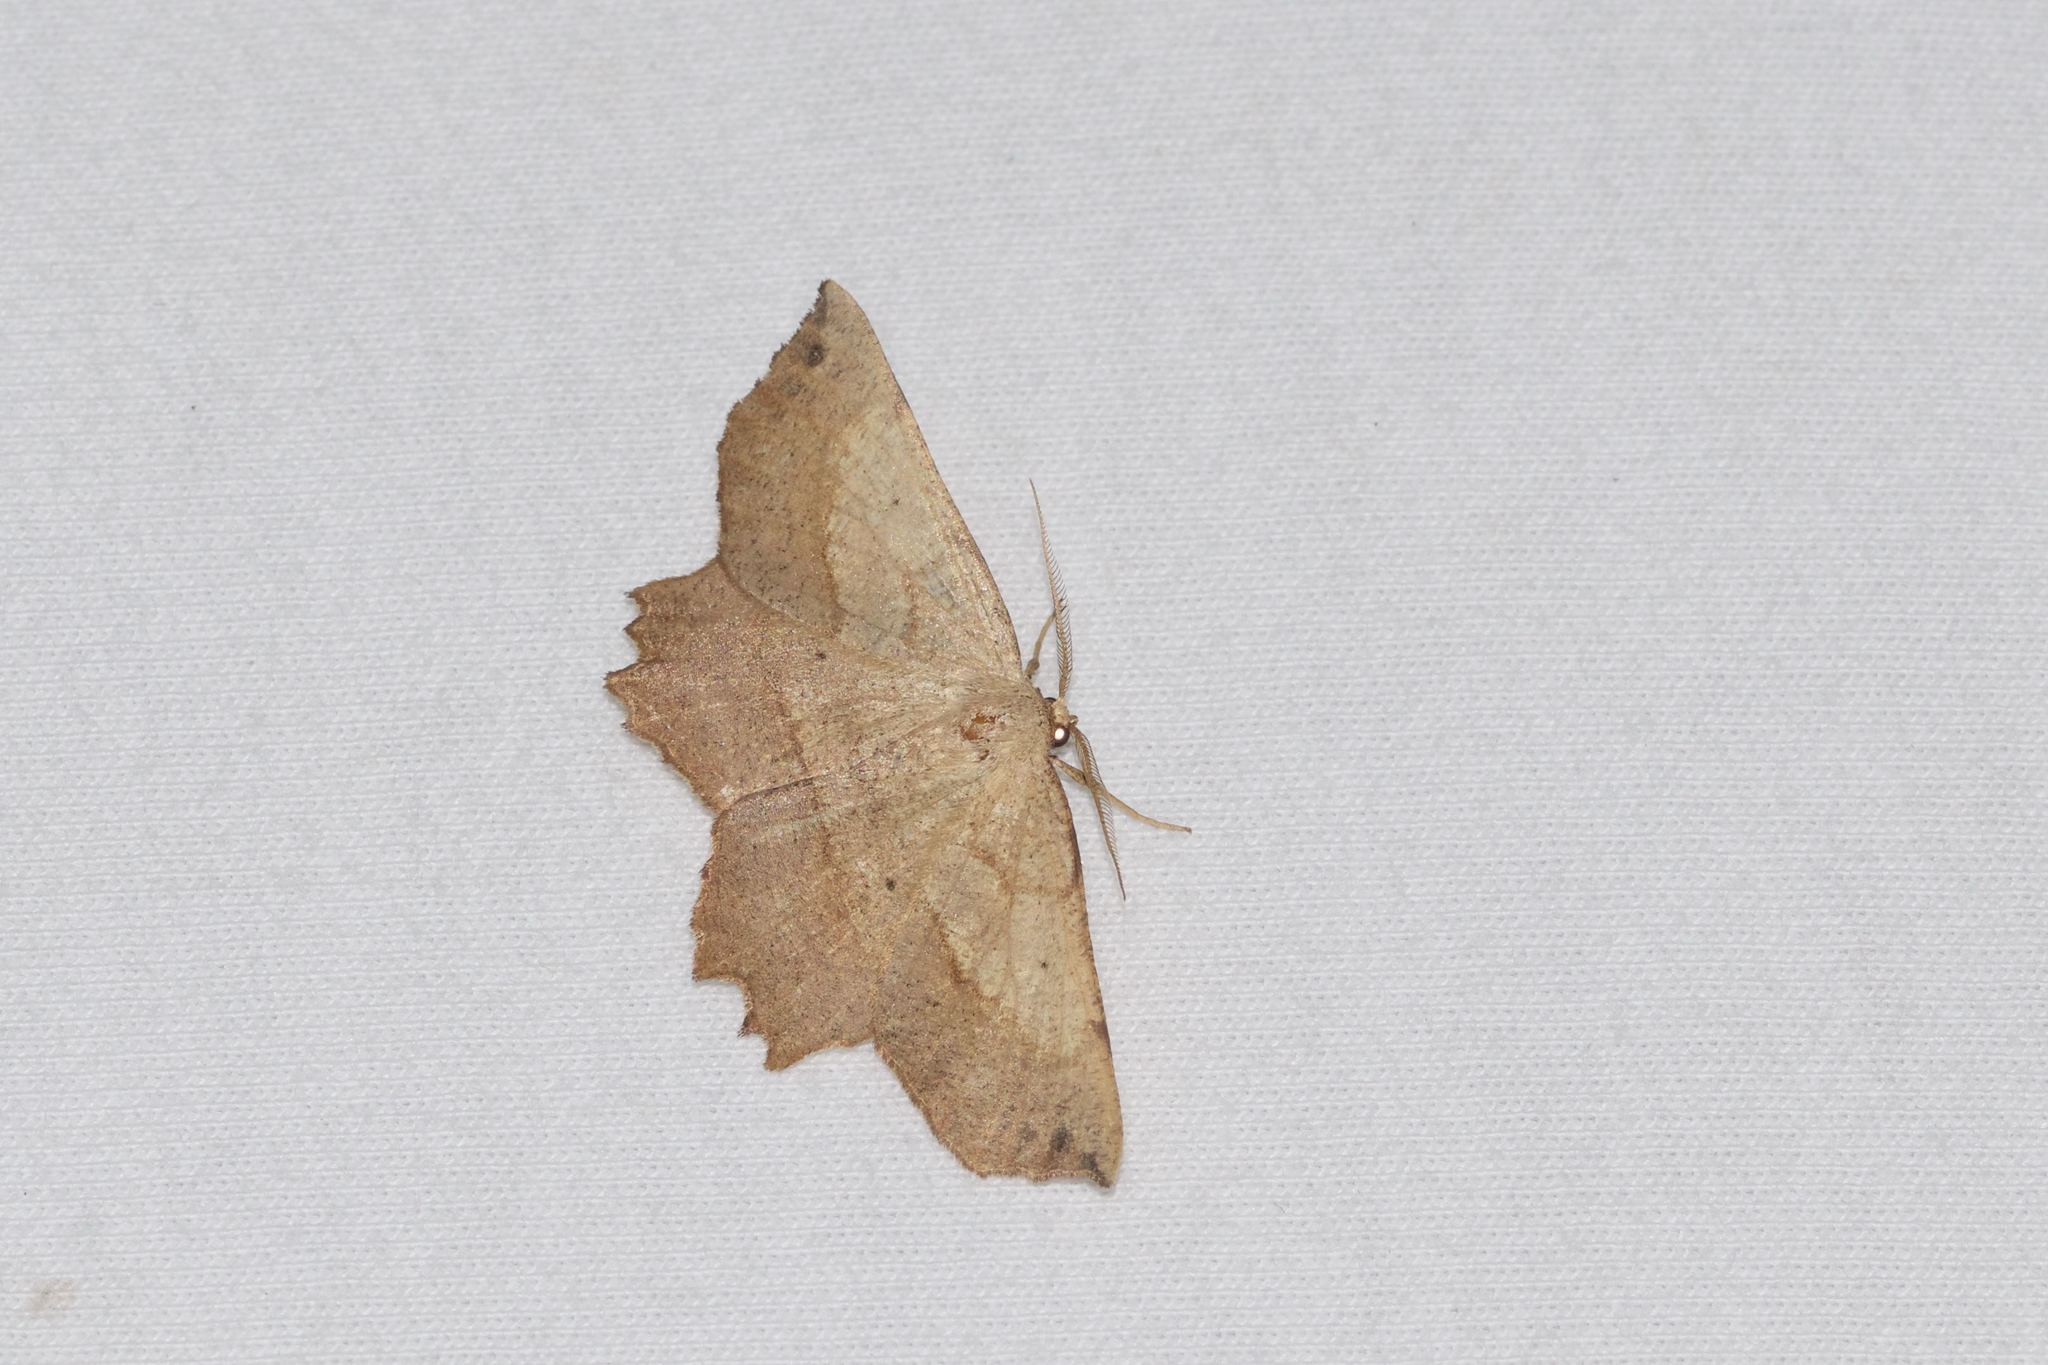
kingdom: Animalia
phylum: Arthropoda
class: Insecta
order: Lepidoptera
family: Geometridae
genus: Euchlaena
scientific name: Euchlaena obtusaria
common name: Obtuse euchlaena moth
